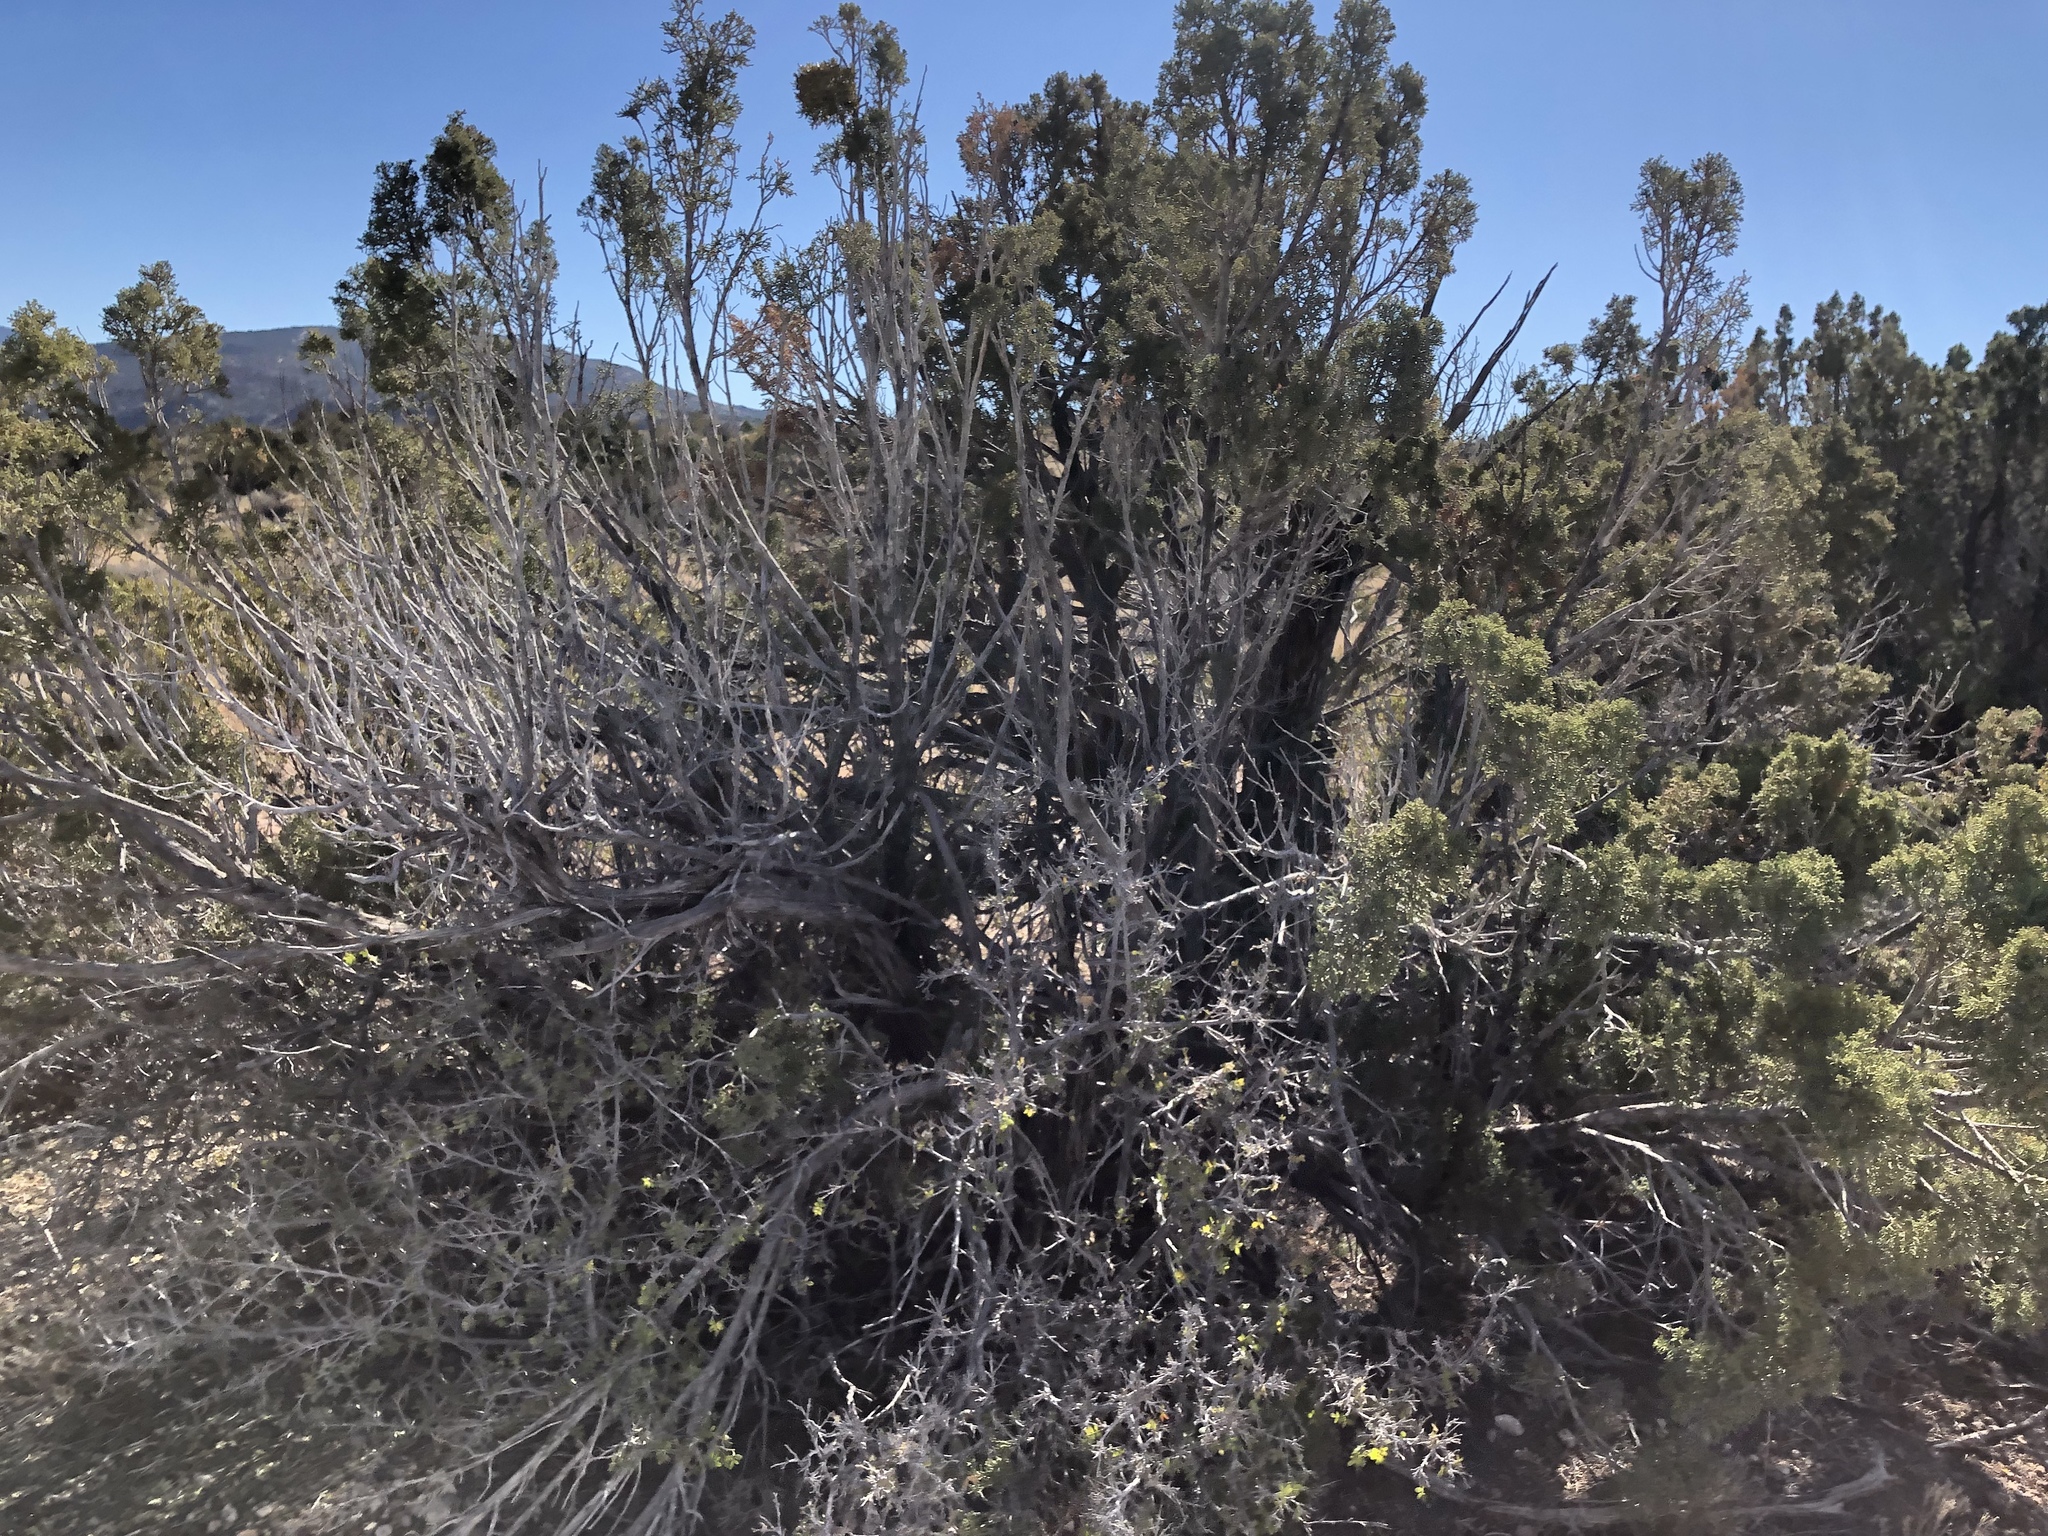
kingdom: Plantae
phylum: Tracheophyta
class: Pinopsida
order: Pinales
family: Cupressaceae
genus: Juniperus
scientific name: Juniperus monosperma
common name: One-seed juniper
